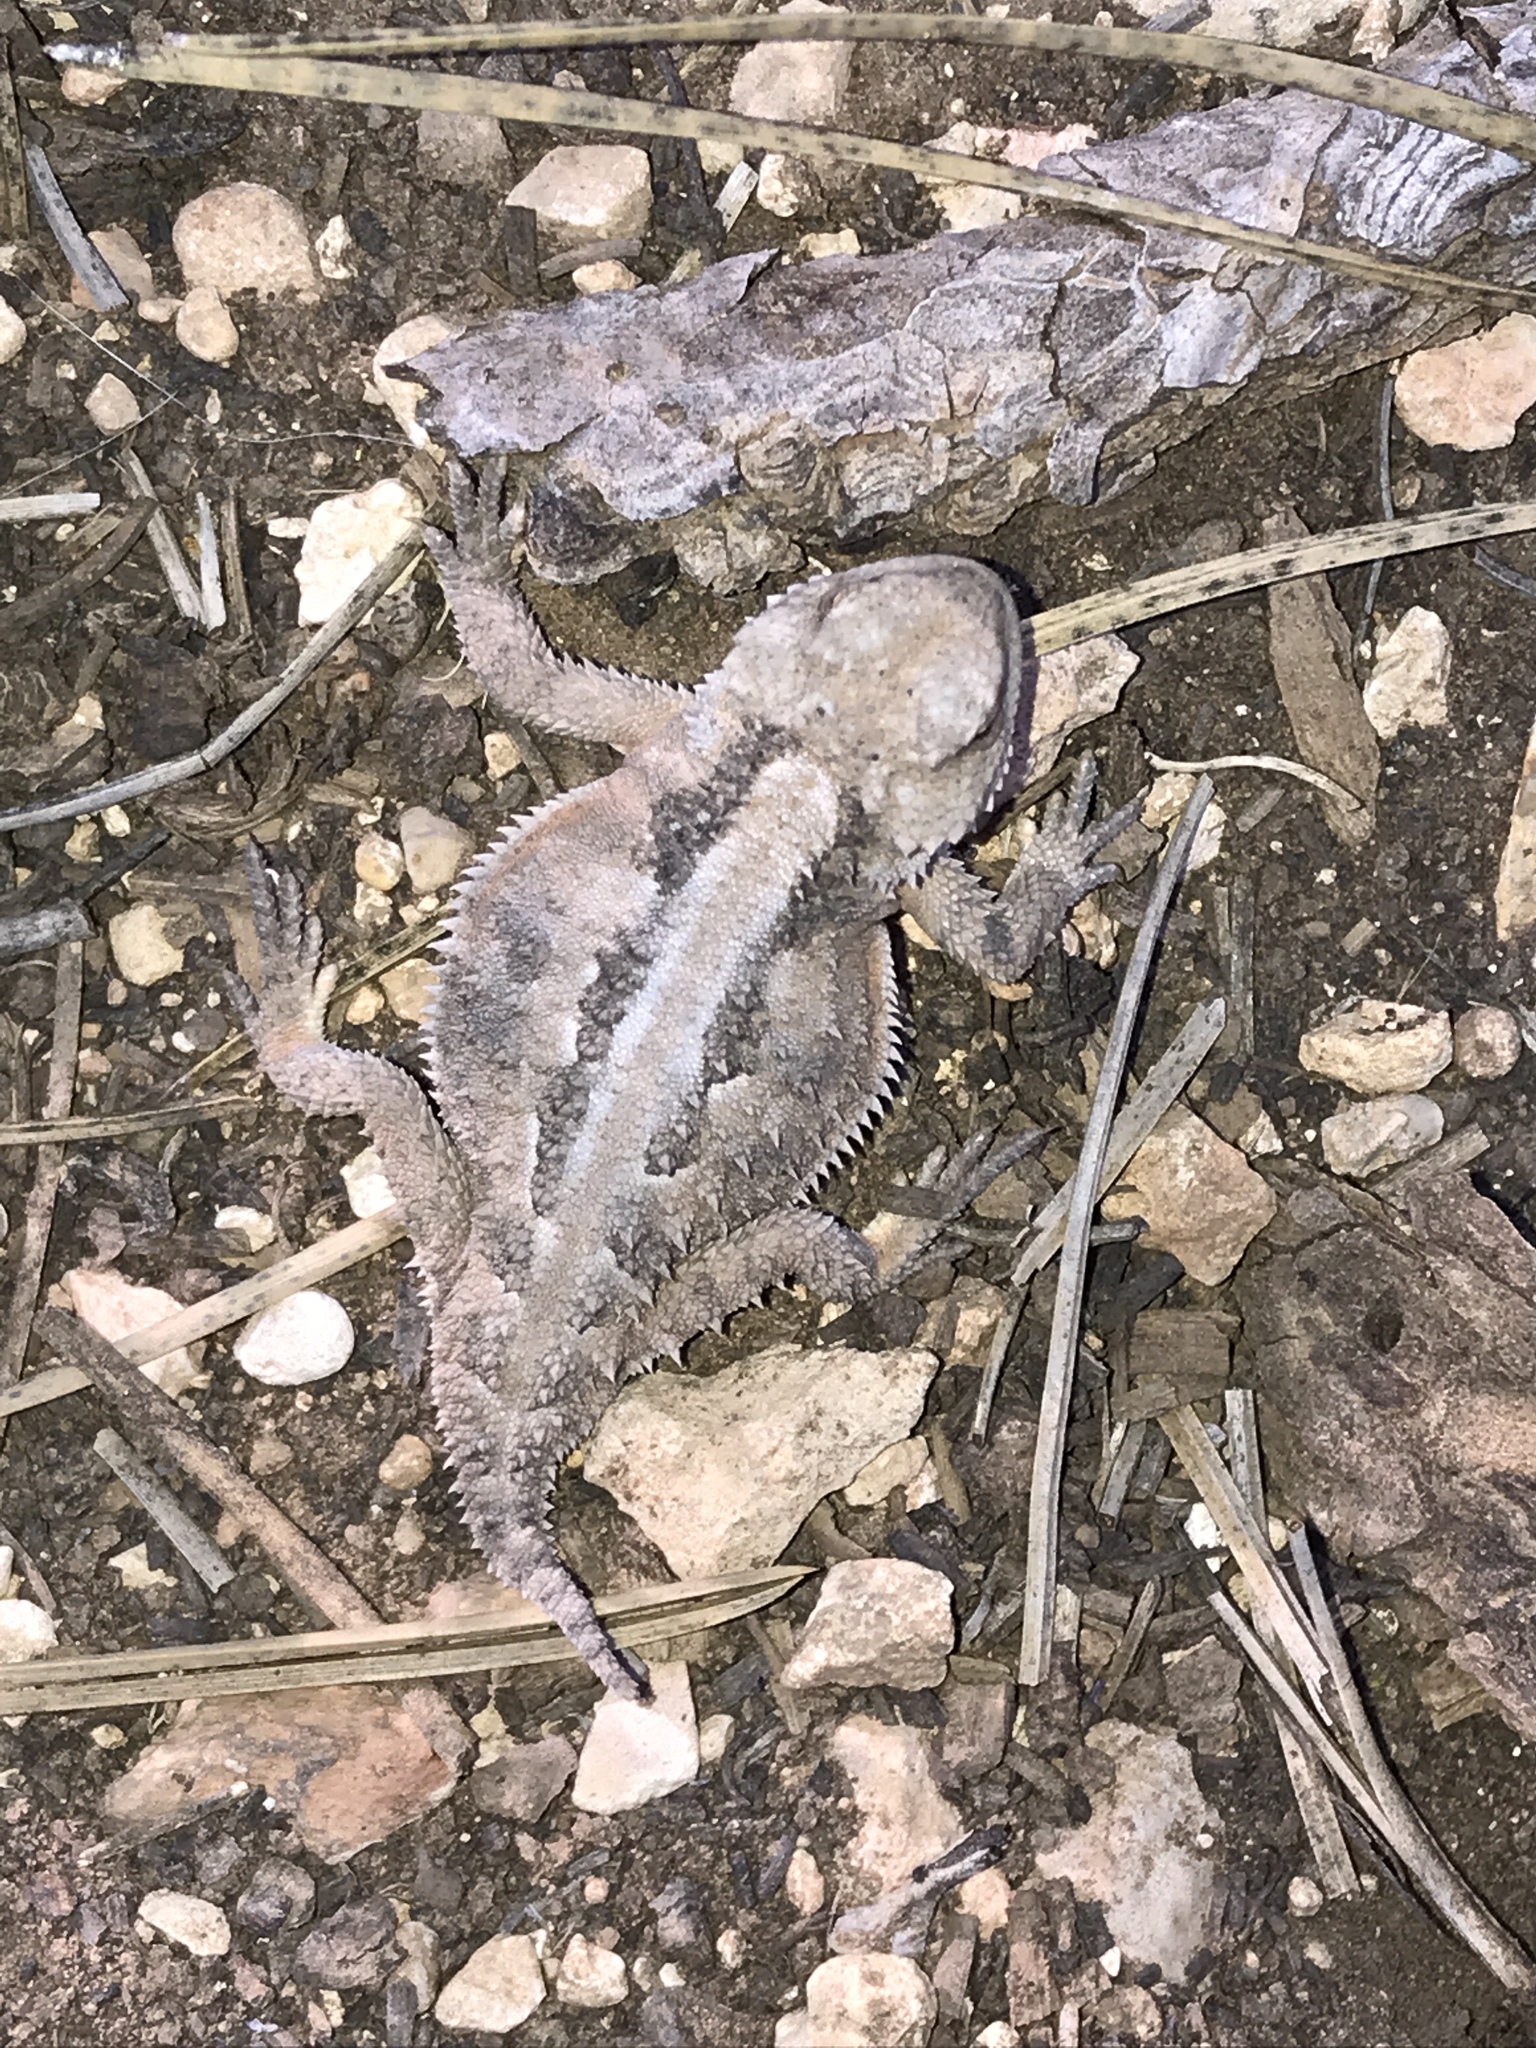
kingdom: Animalia
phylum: Chordata
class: Squamata
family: Phrynosomatidae
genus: Phrynosoma
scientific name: Phrynosoma hernandesi
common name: Greater short-horned lizard
